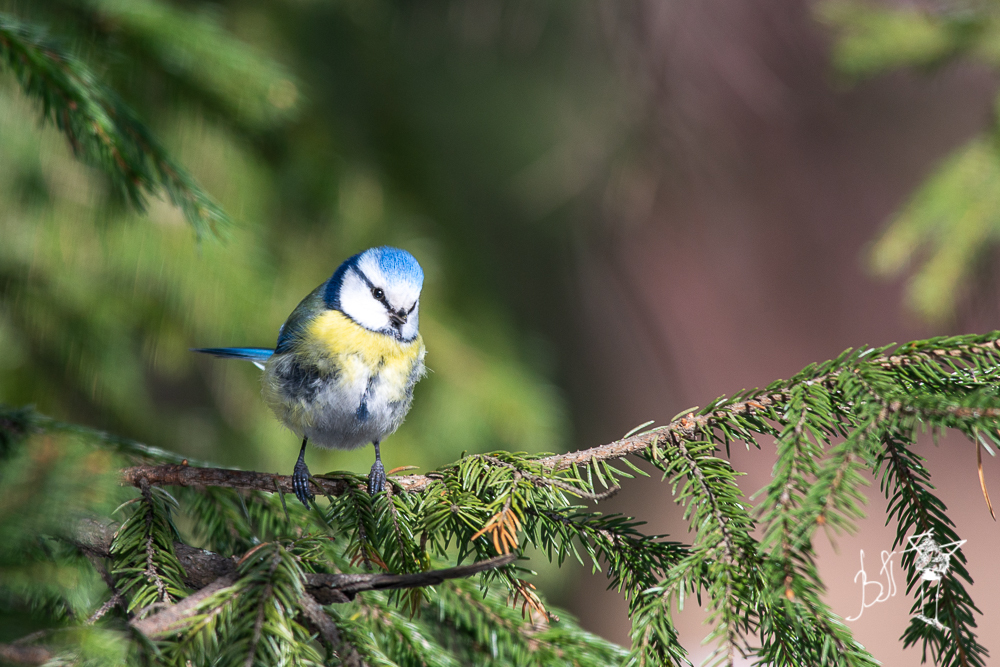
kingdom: Animalia
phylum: Chordata
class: Aves
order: Passeriformes
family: Paridae
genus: Cyanistes
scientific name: Cyanistes caeruleus
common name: Eurasian blue tit
